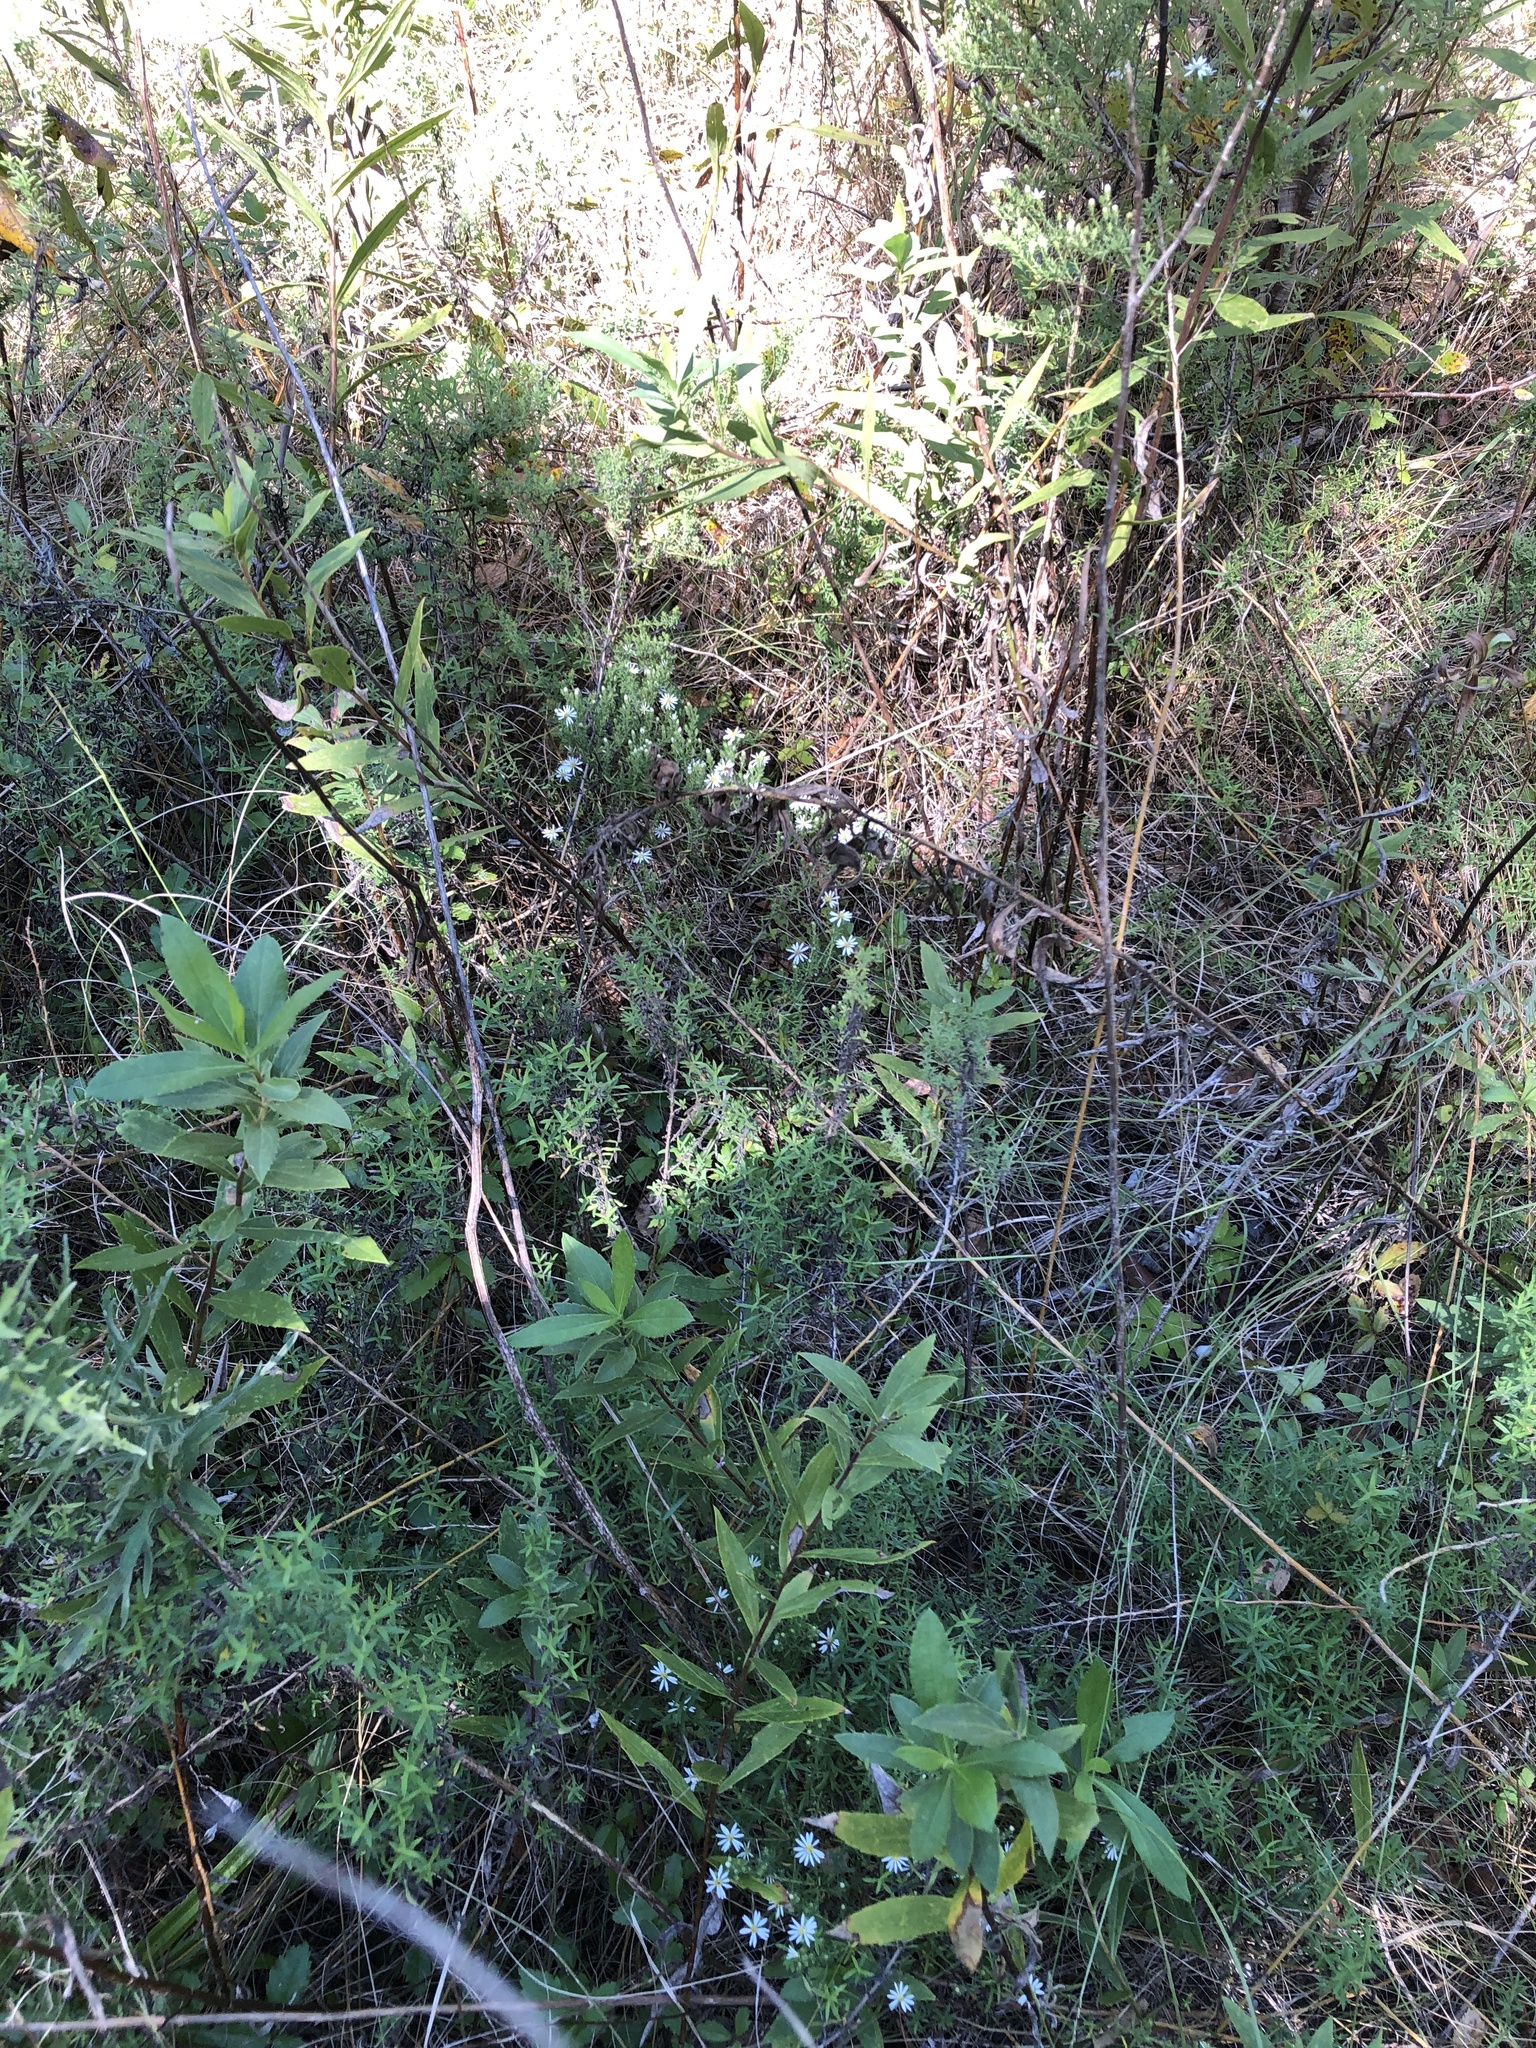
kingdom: Plantae
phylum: Tracheophyta
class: Magnoliopsida
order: Asterales
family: Asteraceae
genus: Symphyotrichum
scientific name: Symphyotrichum ericoides
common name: Heath aster
